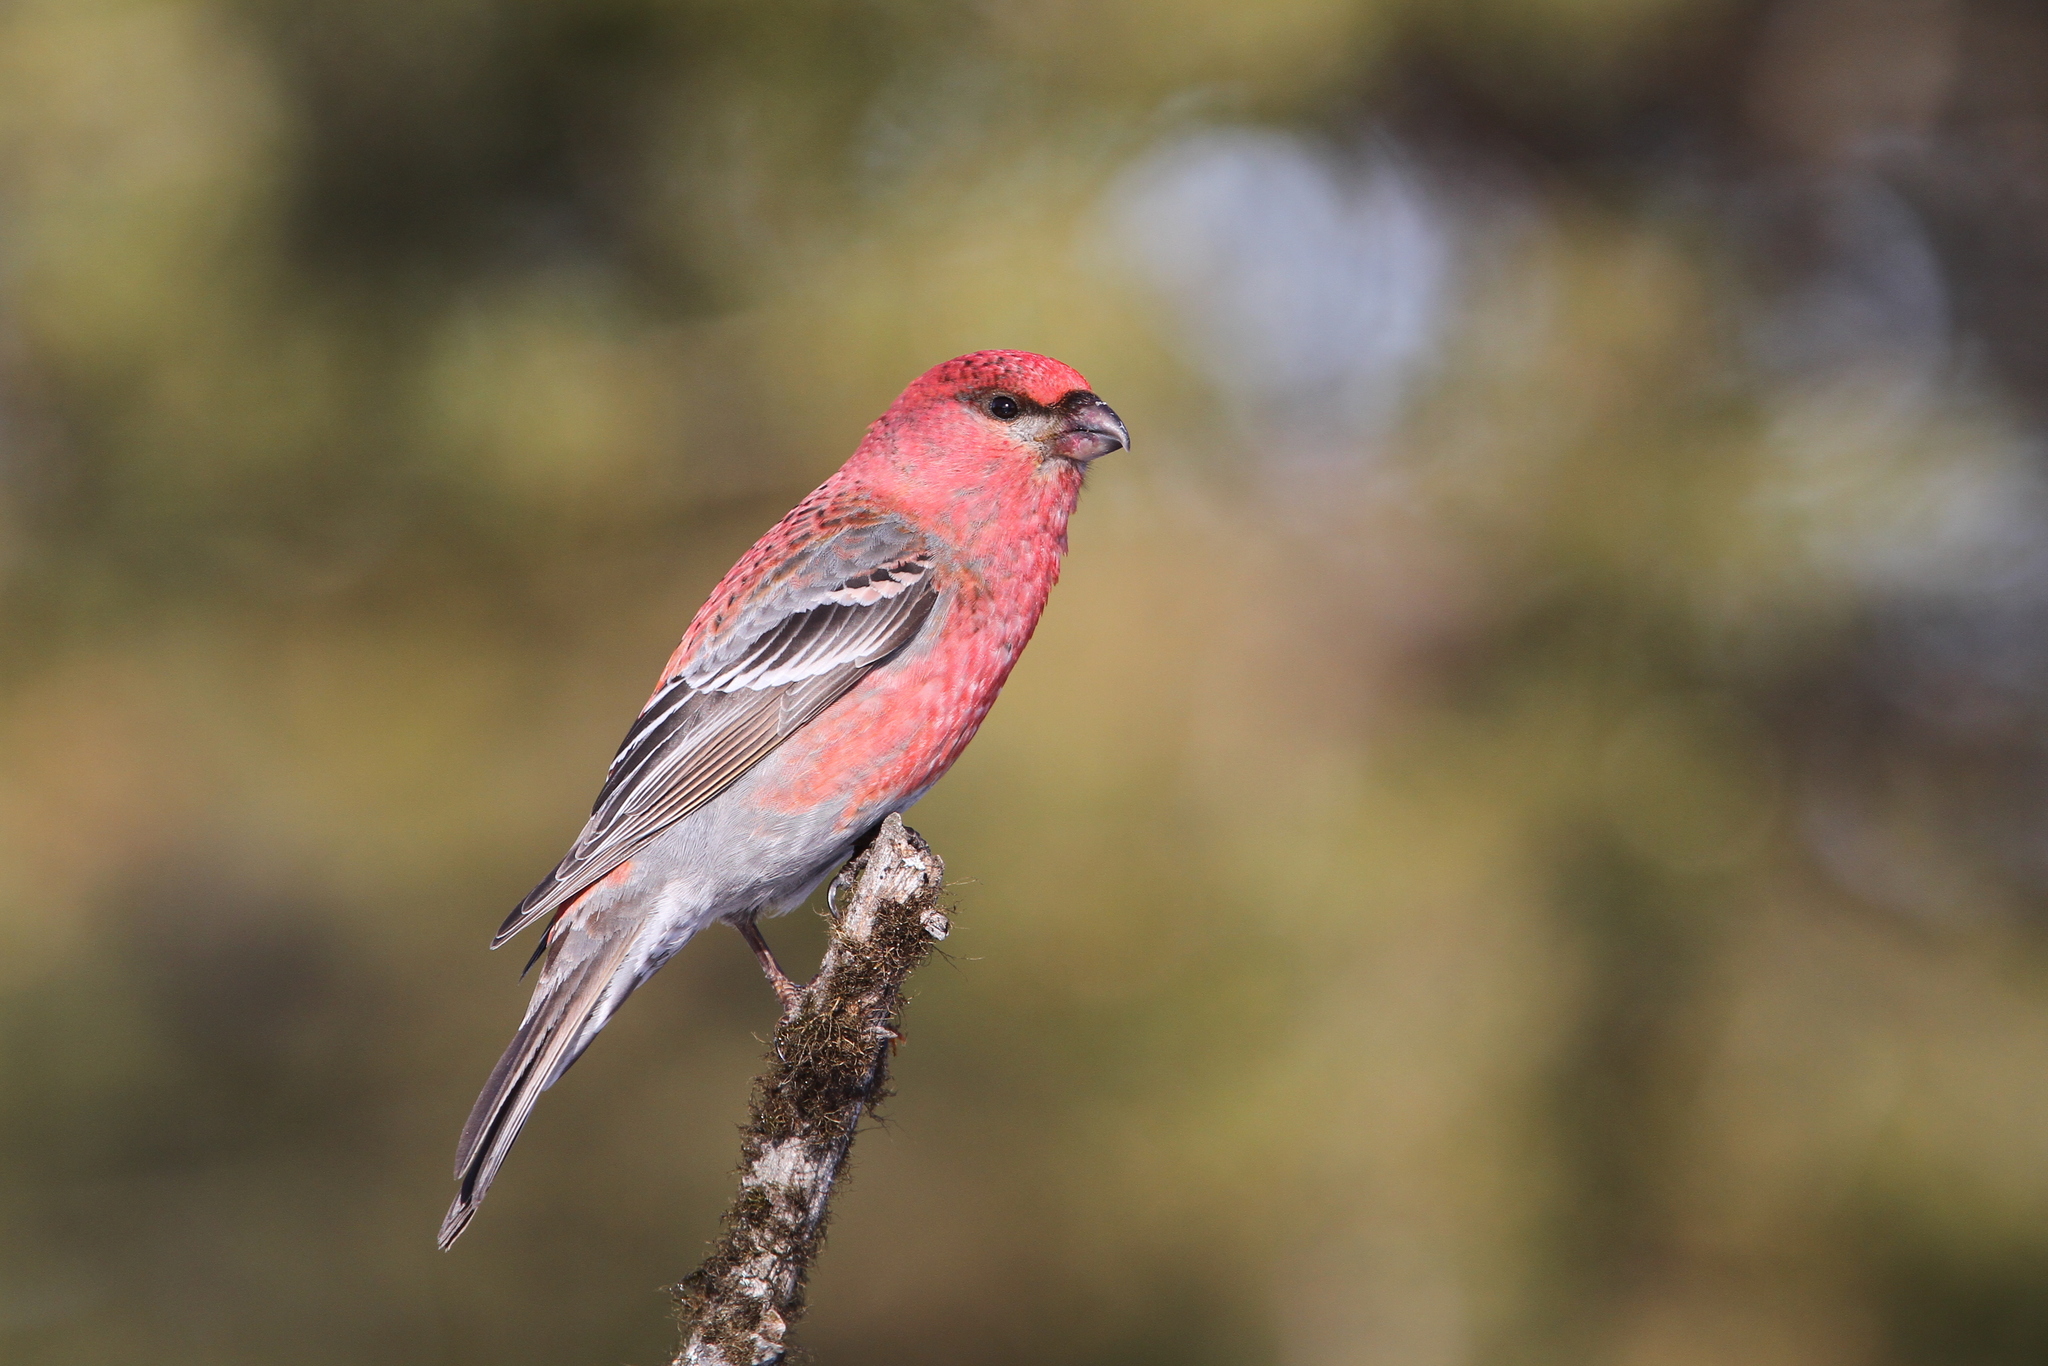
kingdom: Animalia
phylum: Chordata
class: Aves
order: Passeriformes
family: Fringillidae
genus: Pinicola
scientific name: Pinicola enucleator
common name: Pine grosbeak
